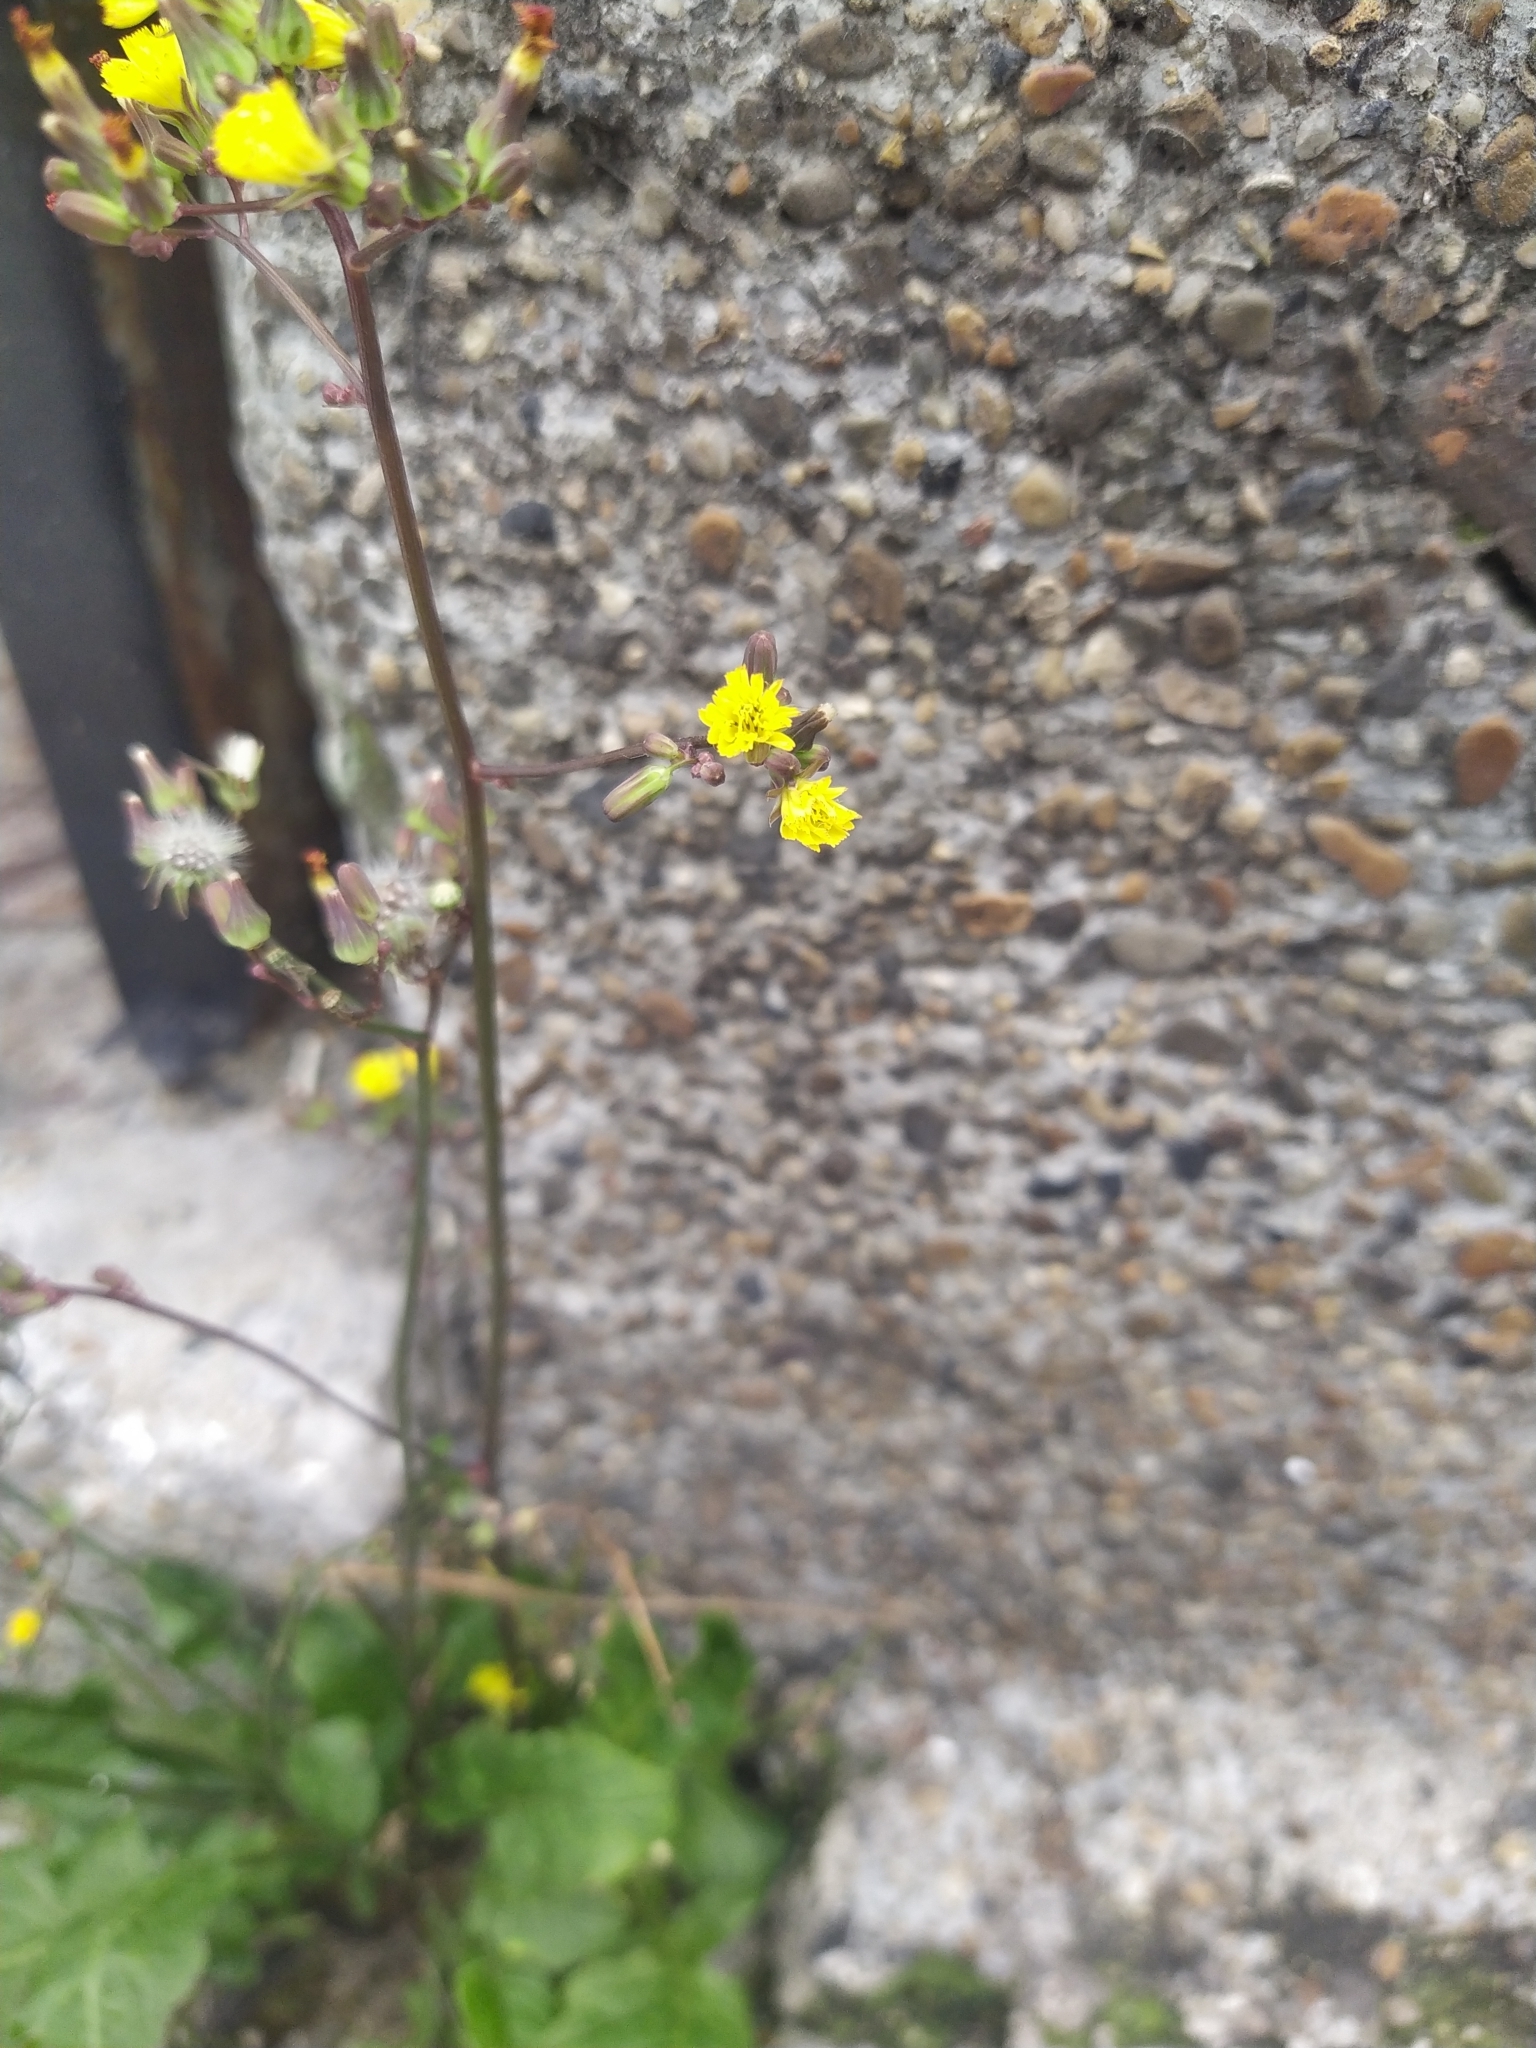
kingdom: Plantae
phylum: Tracheophyta
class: Magnoliopsida
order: Asterales
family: Asteraceae
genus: Youngia
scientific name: Youngia japonica
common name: Oriental false hawksbeard
